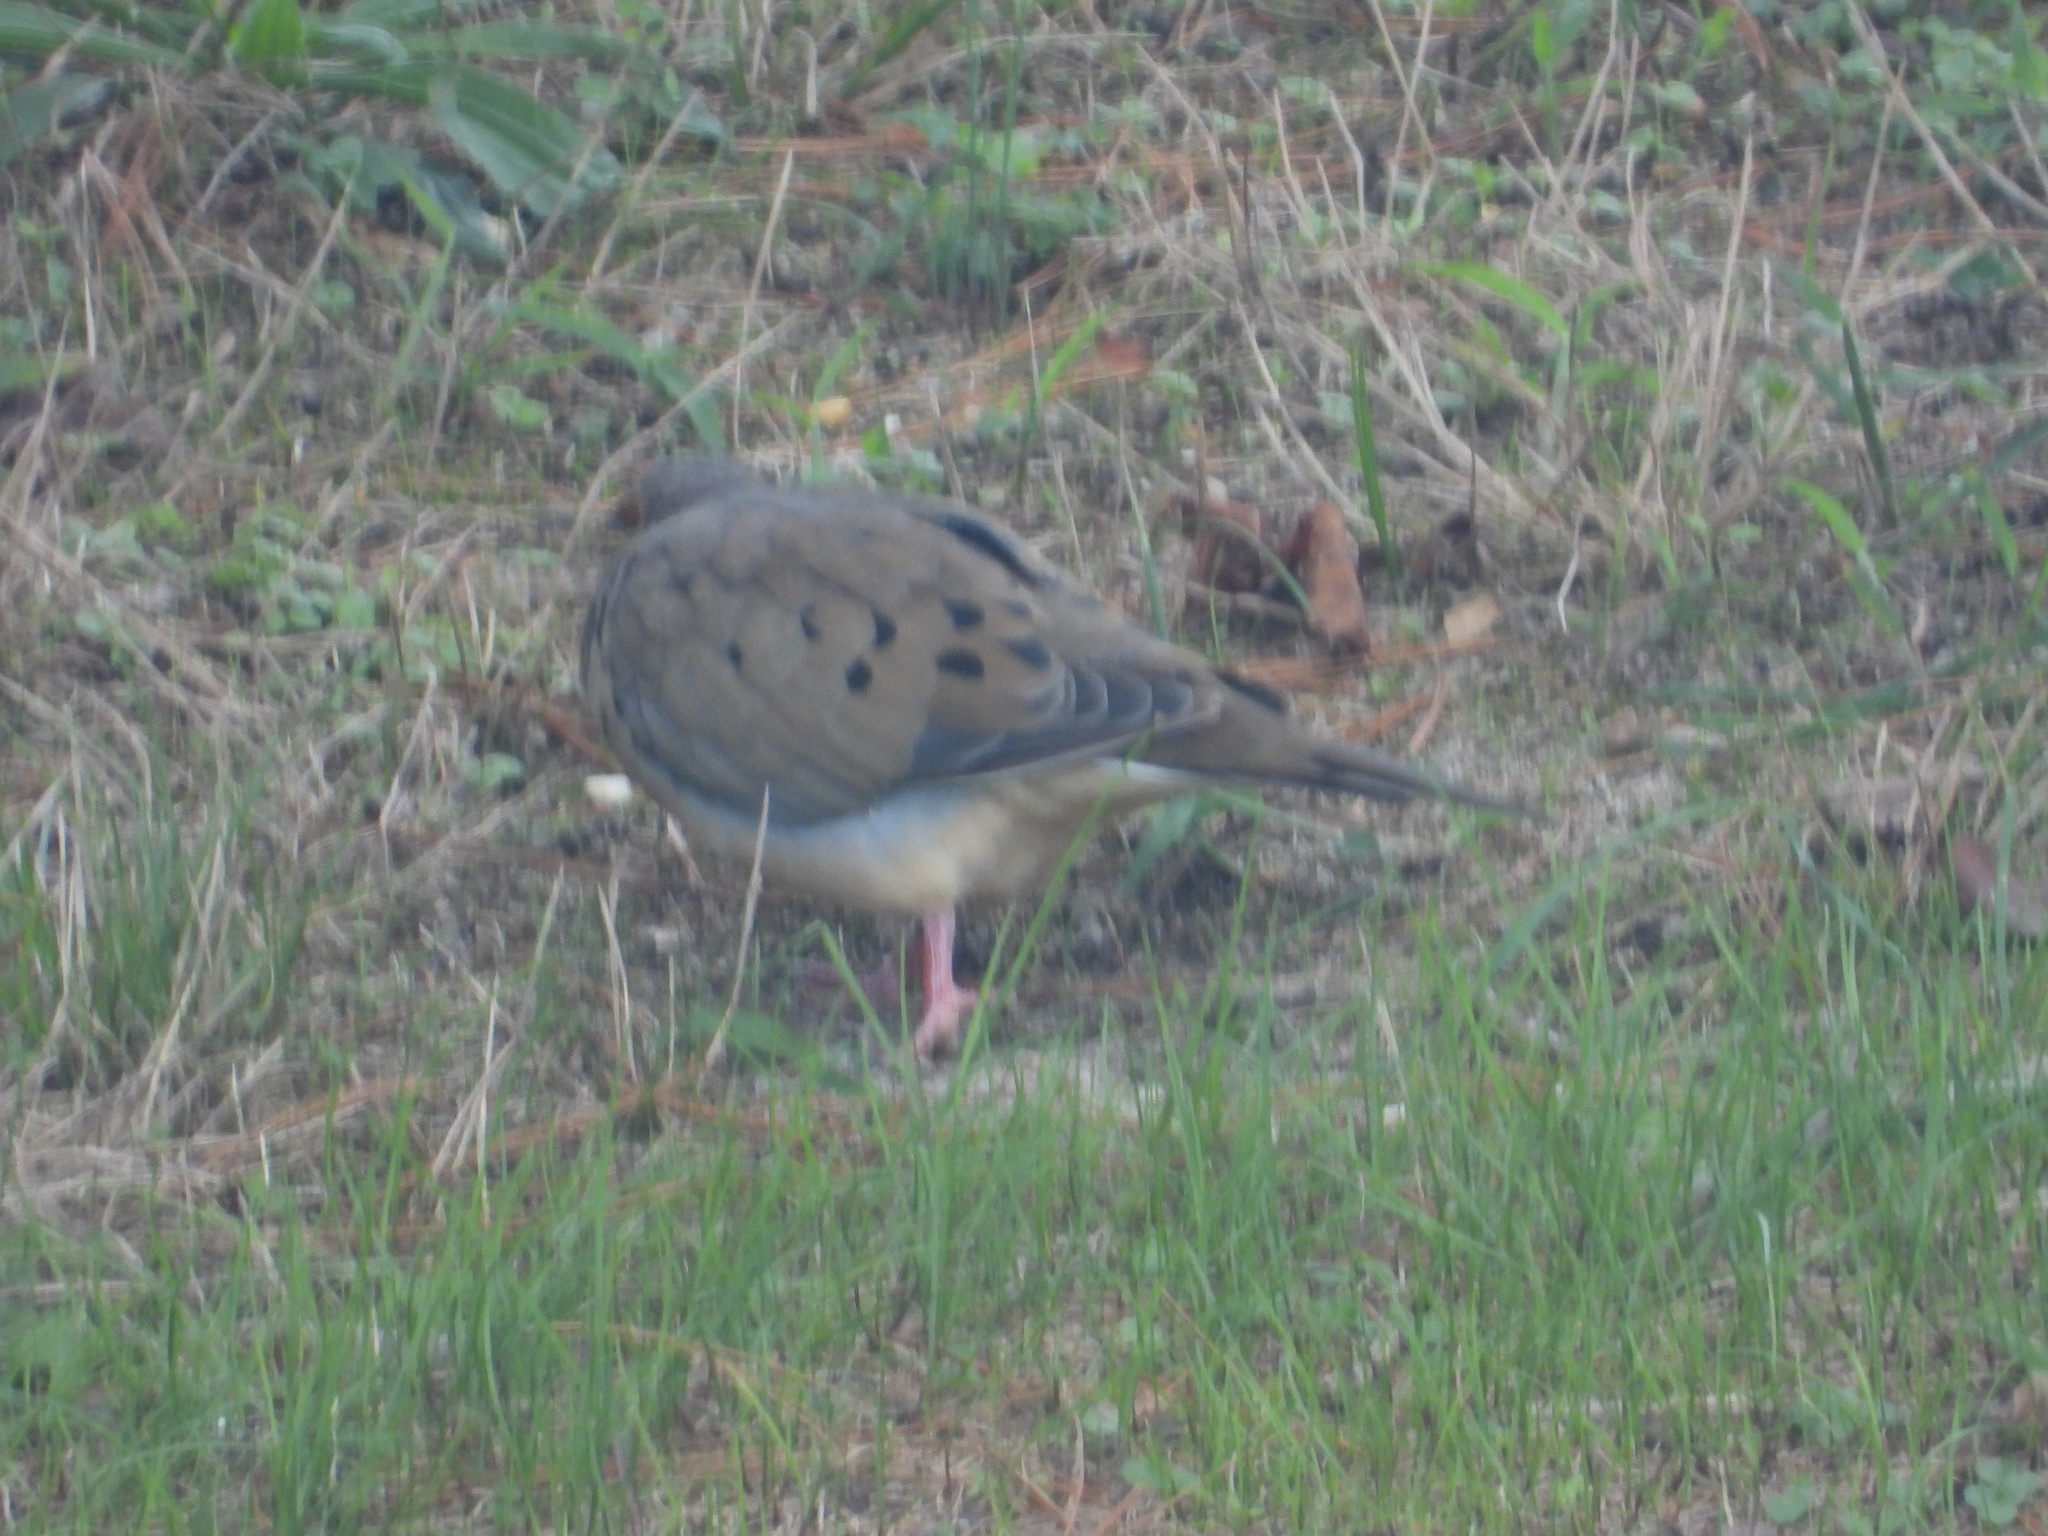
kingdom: Animalia
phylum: Chordata
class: Aves
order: Columbiformes
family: Columbidae
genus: Zenaida
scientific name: Zenaida macroura
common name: Mourning dove
